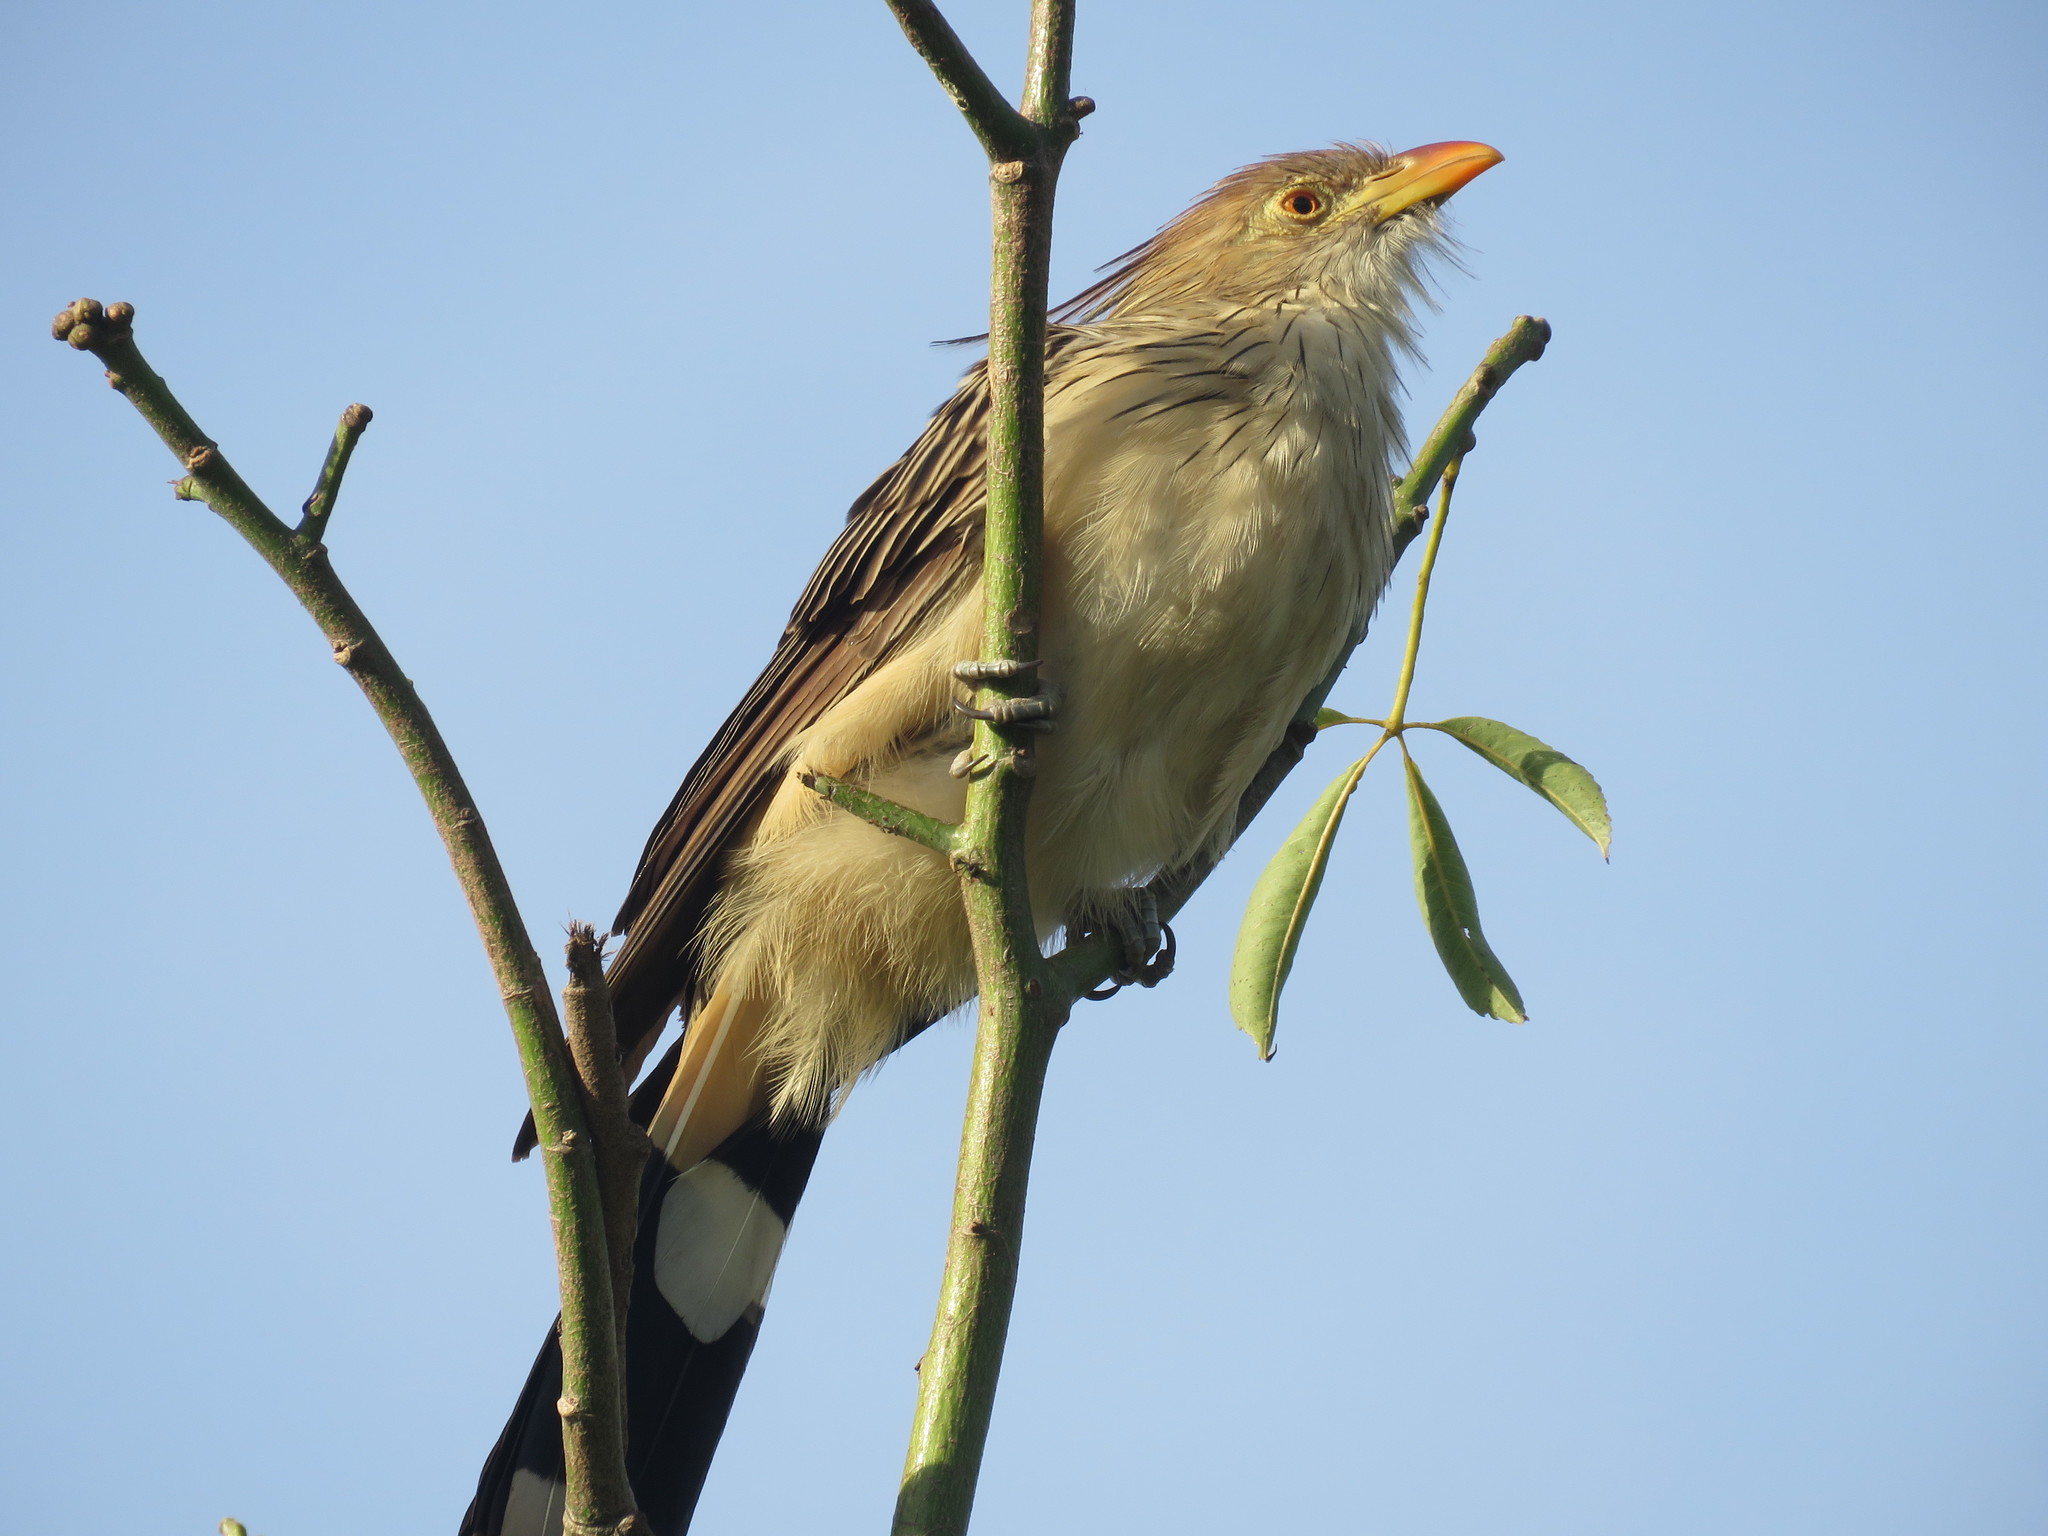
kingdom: Animalia
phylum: Chordata
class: Aves
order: Cuculiformes
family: Cuculidae
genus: Guira
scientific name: Guira guira
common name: Guira cuckoo
